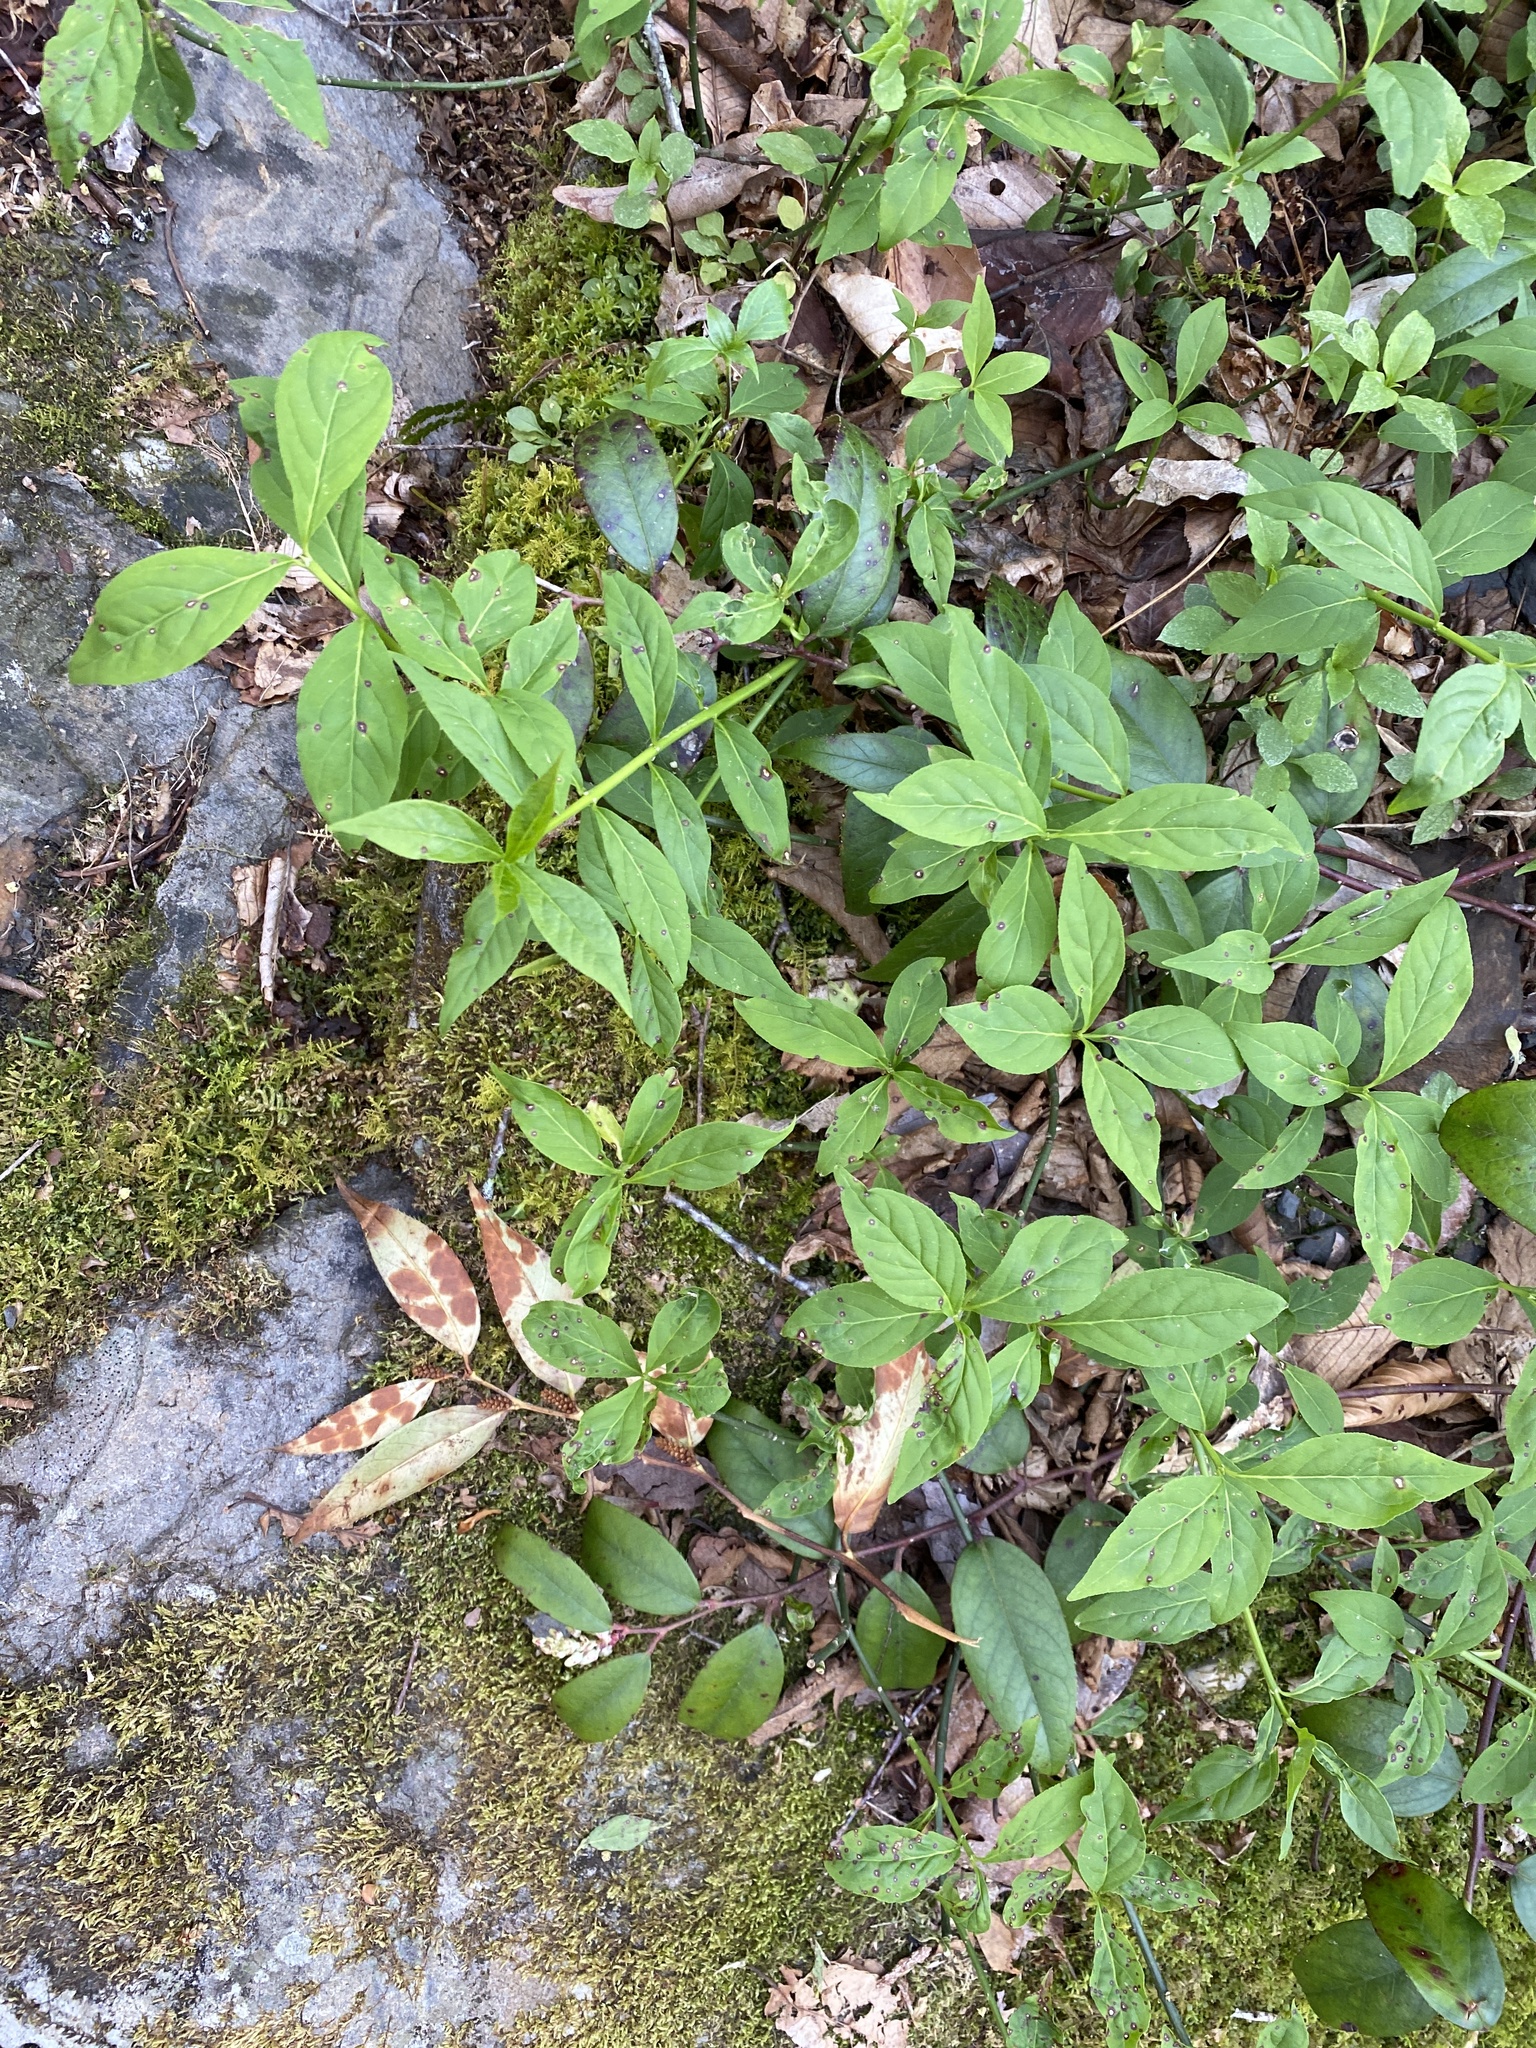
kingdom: Plantae
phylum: Tracheophyta
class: Magnoliopsida
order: Celastrales
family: Celastraceae
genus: Euonymus
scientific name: Euonymus obovatus
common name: Running strawberry-bush
